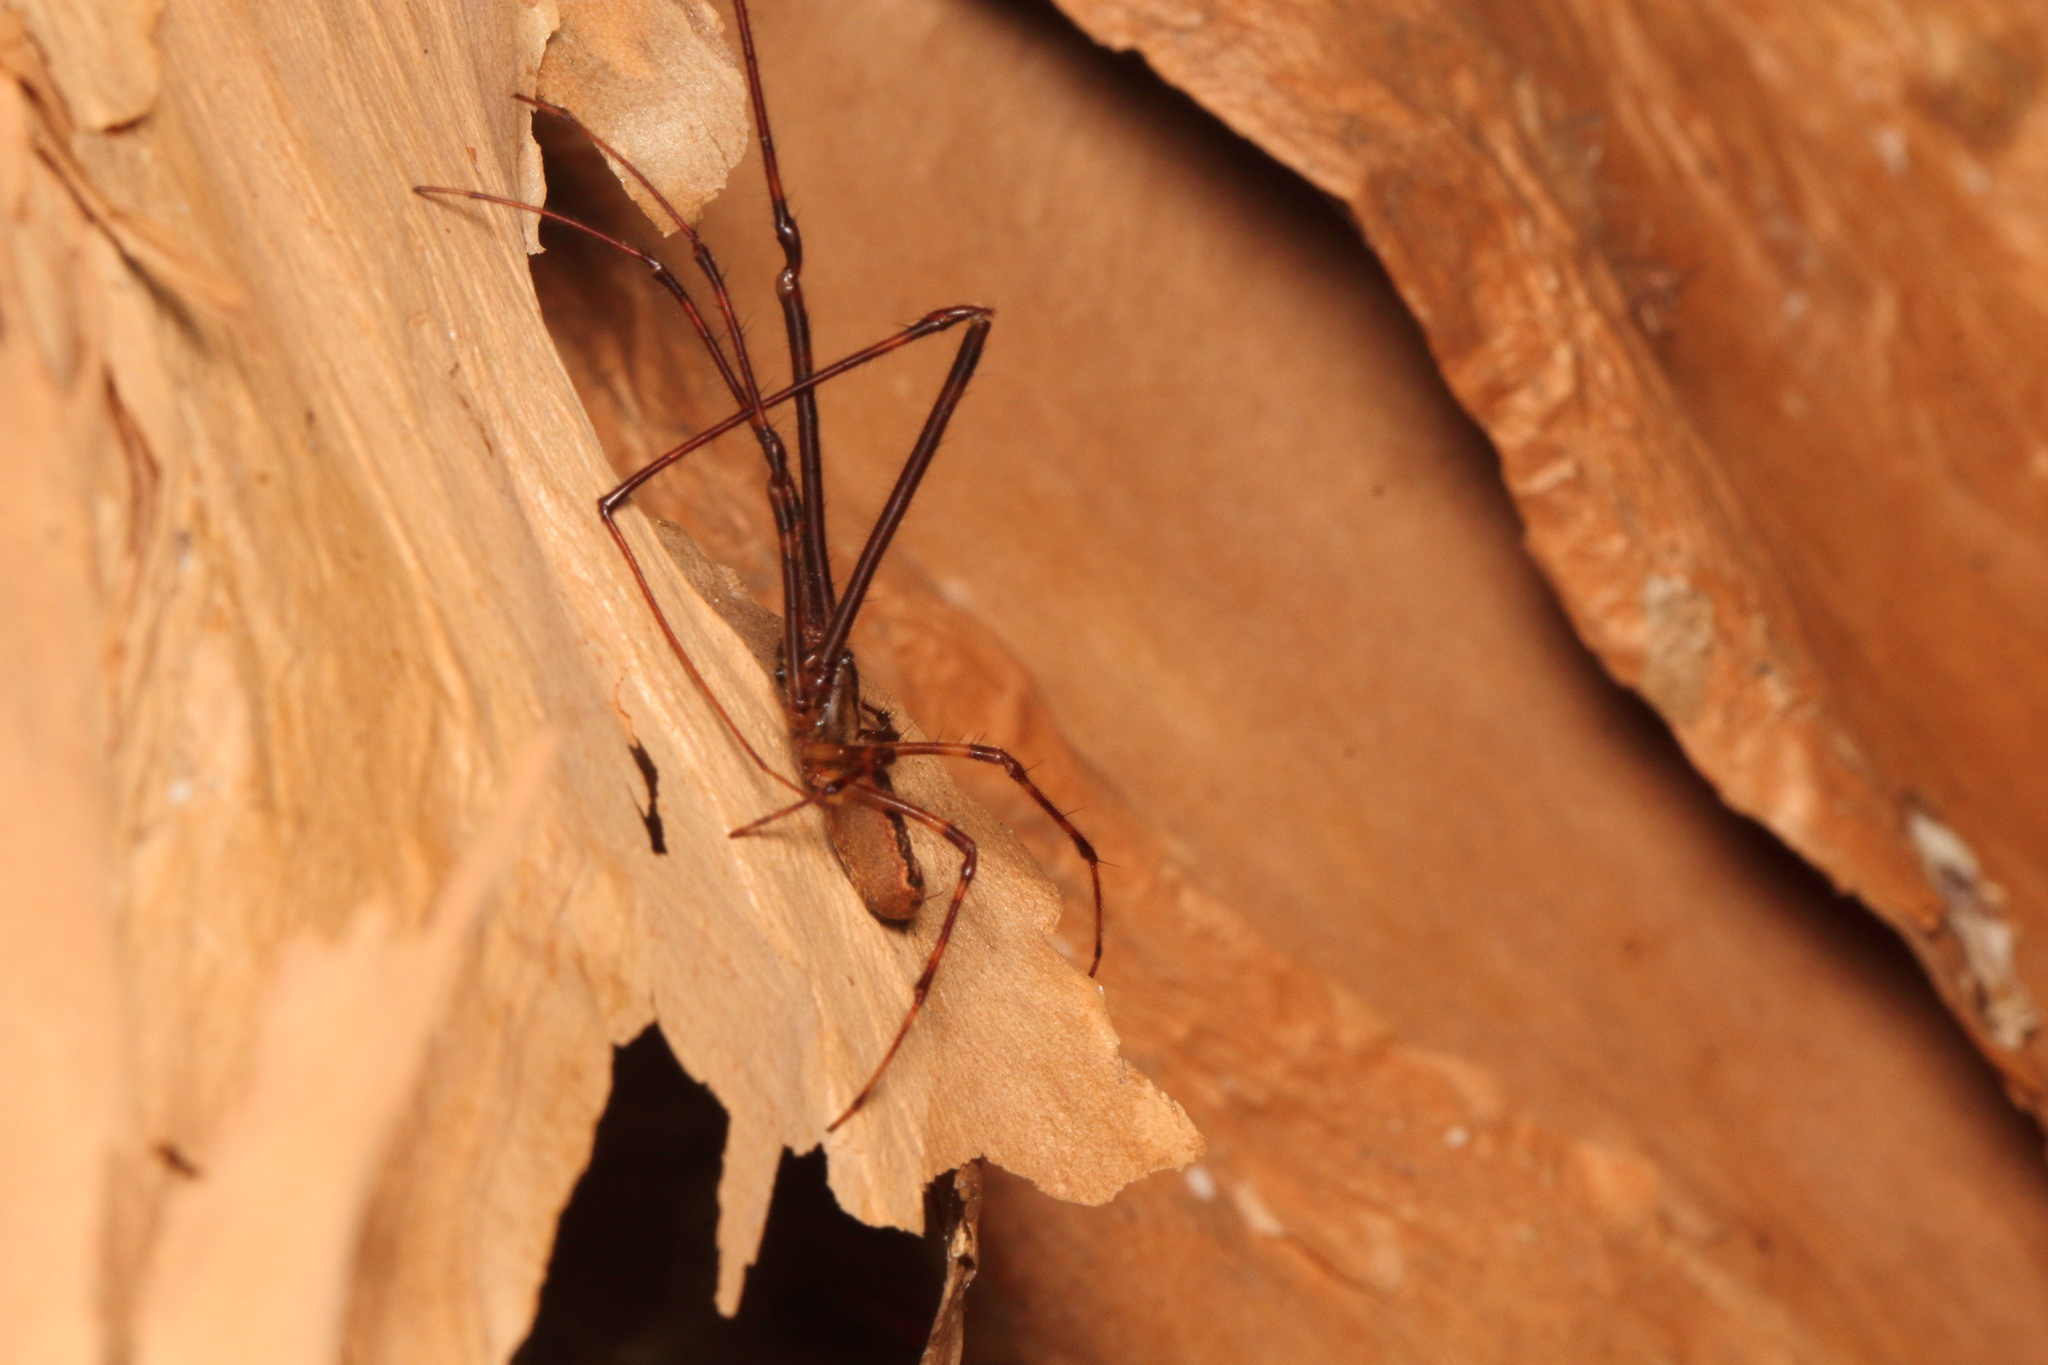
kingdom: Animalia
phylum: Arthropoda
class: Arachnida
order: Araneae
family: Tetragnathidae
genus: Nanometa
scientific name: Nanometa lagenifera
